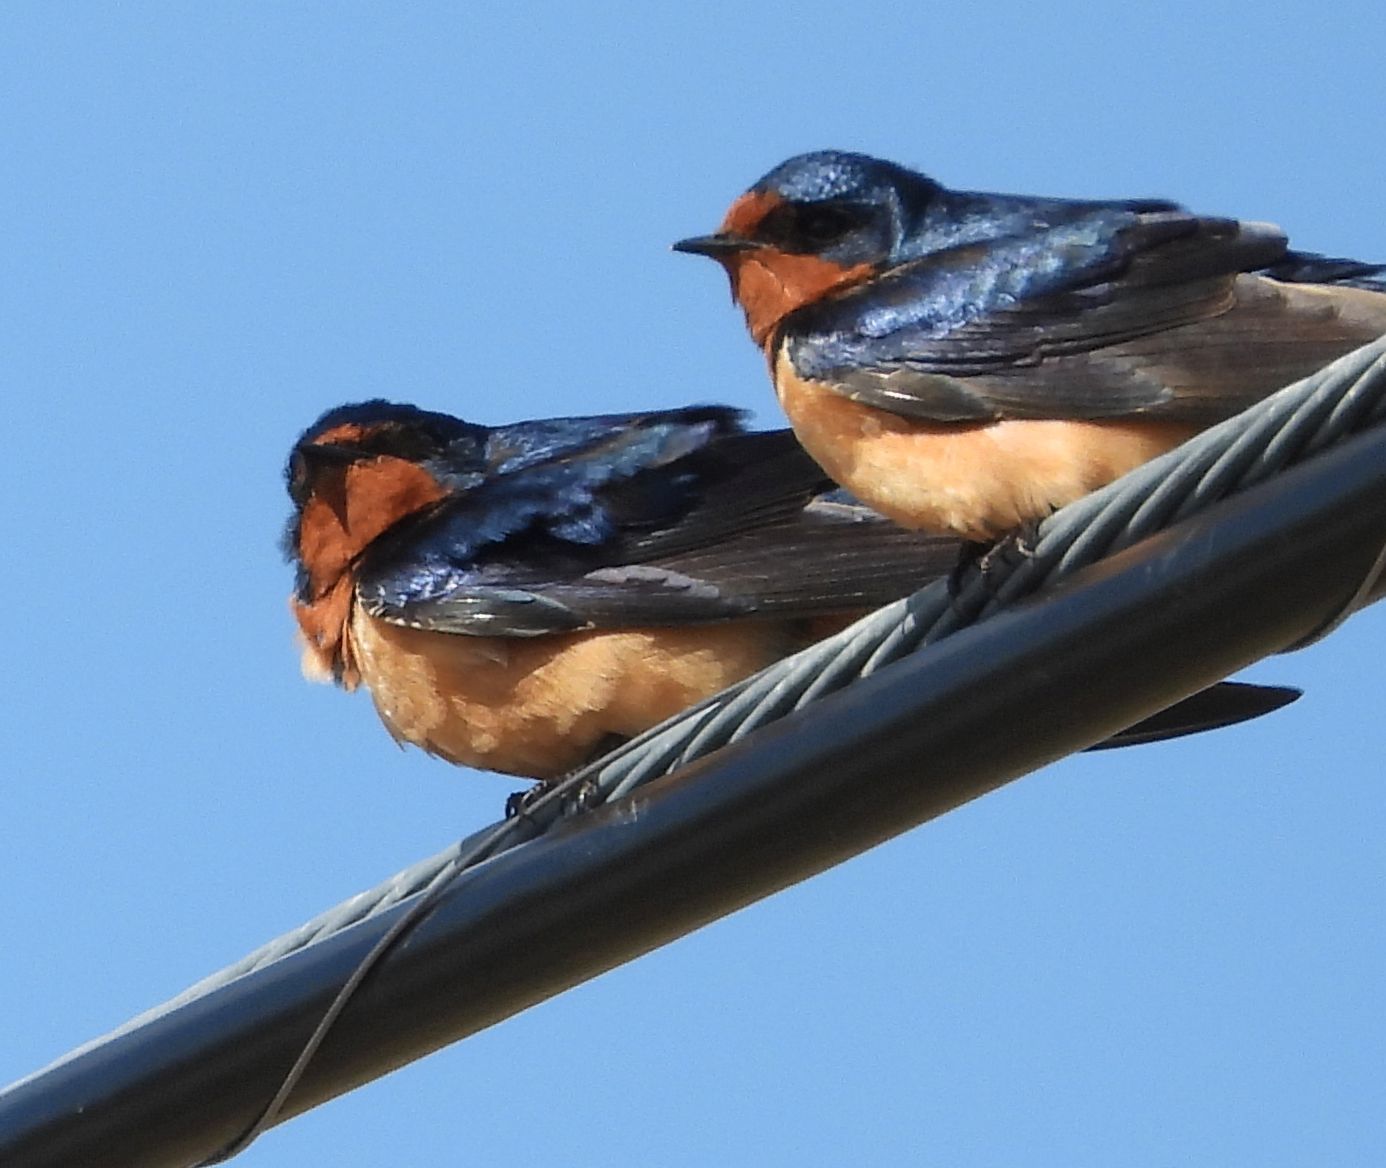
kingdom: Animalia
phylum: Chordata
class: Aves
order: Passeriformes
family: Hirundinidae
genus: Hirundo
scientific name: Hirundo rustica
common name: Barn swallow
